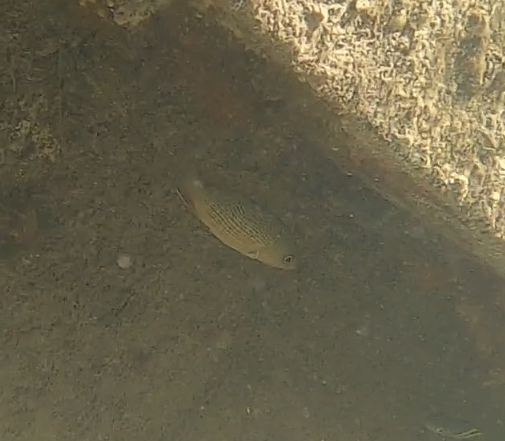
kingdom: Animalia
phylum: Chordata
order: Perciformes
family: Lutjanidae
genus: Lutjanus
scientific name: Lutjanus griseus
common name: Gray snapper
